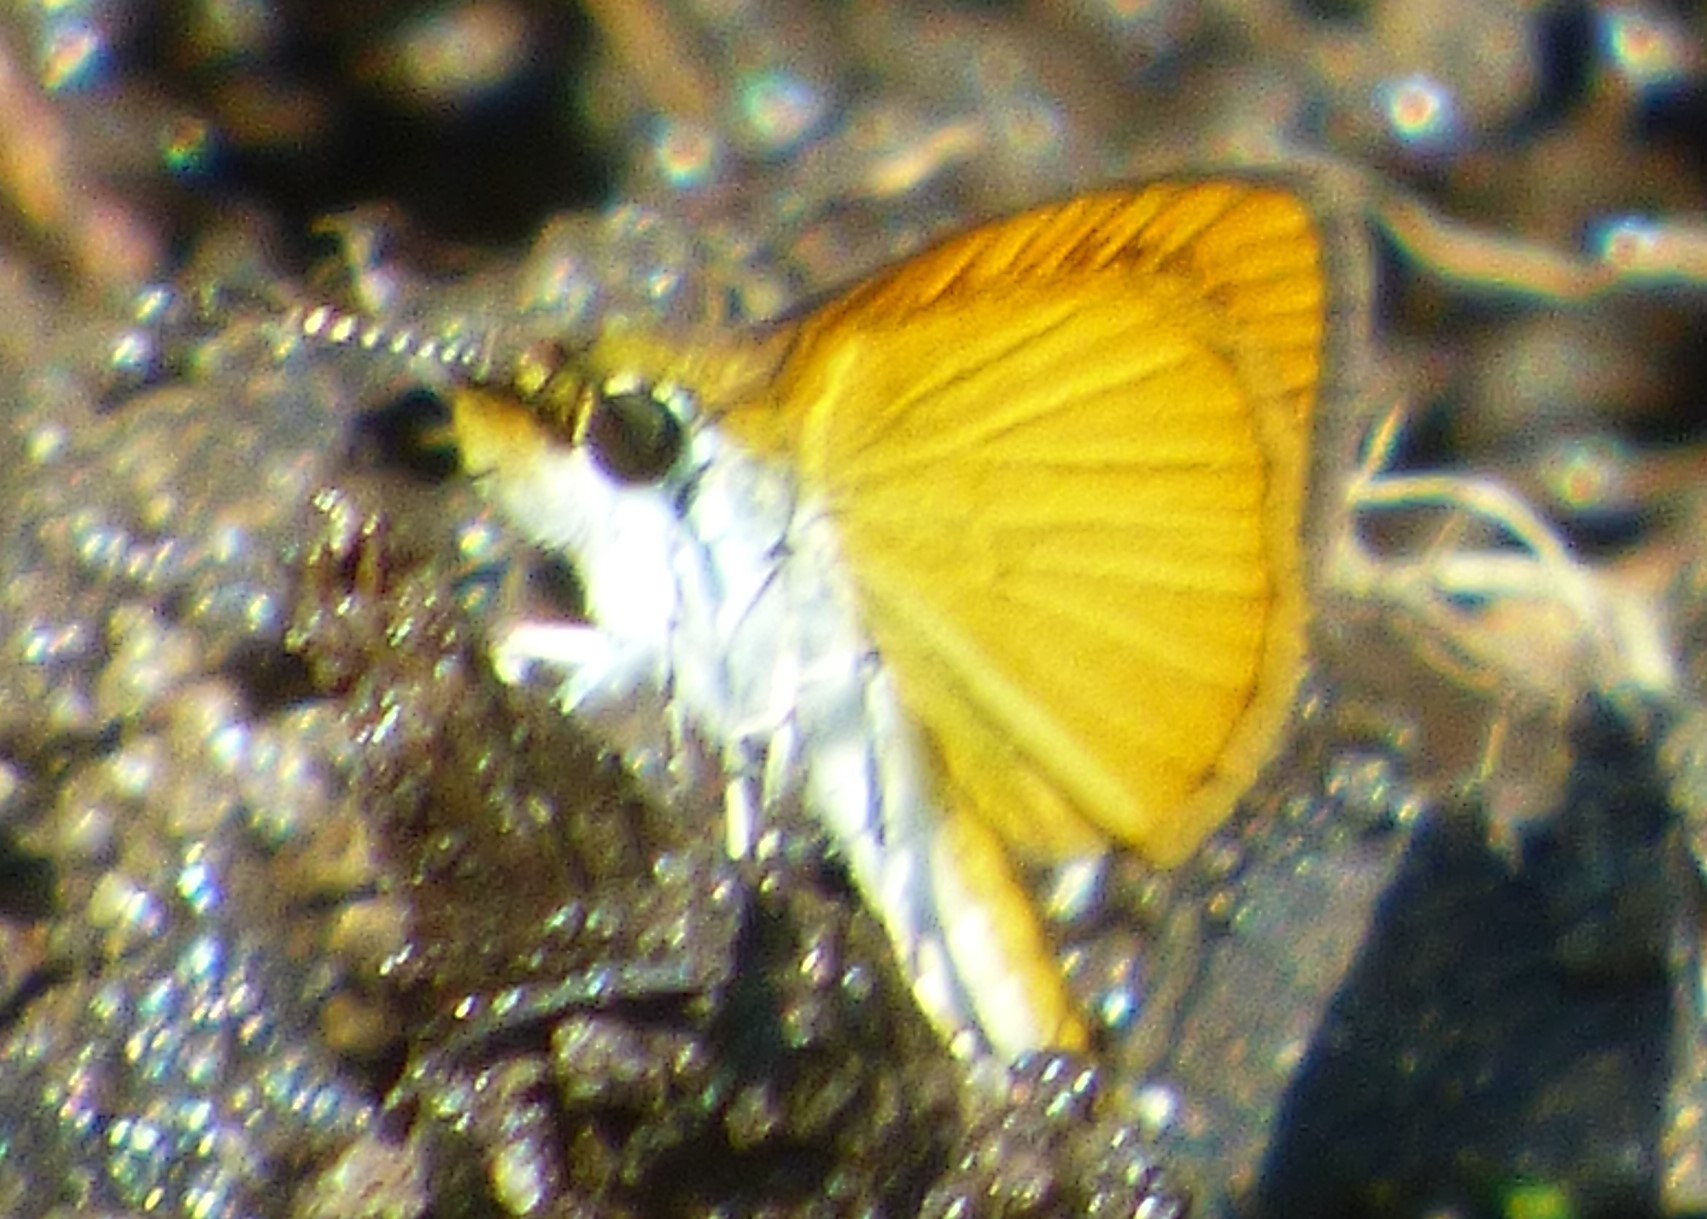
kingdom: Animalia
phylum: Arthropoda
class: Insecta
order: Lepidoptera
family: Hesperiidae
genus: Ancyloxypha
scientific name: Ancyloxypha numitor
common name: Least skipper
